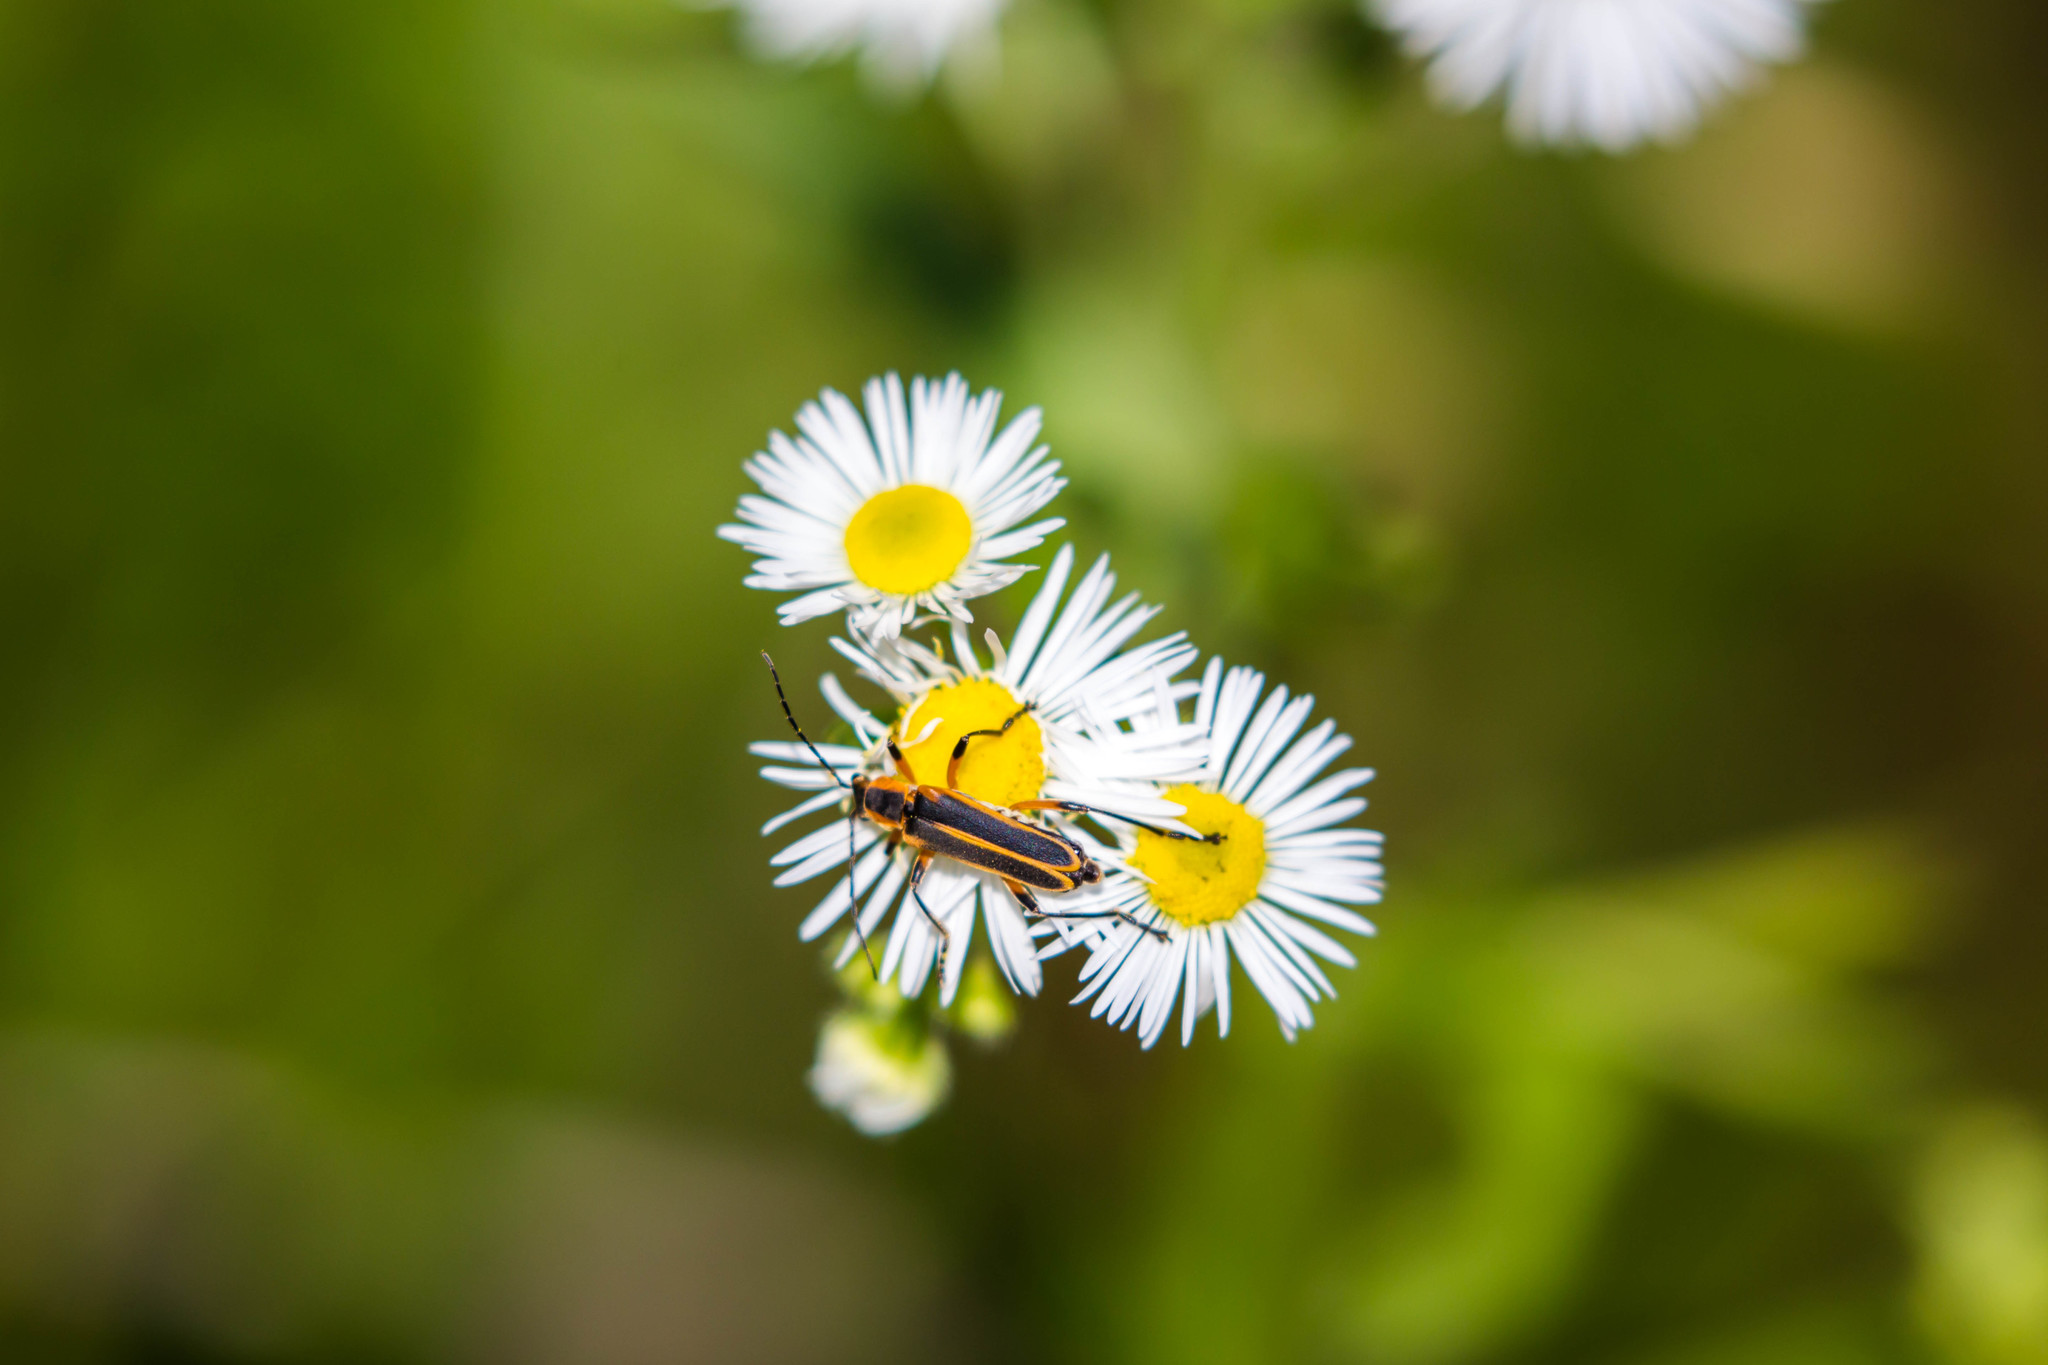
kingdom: Animalia
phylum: Arthropoda
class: Insecta
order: Coleoptera
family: Cantharidae
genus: Chauliognathus
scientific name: Chauliognathus marginatus
